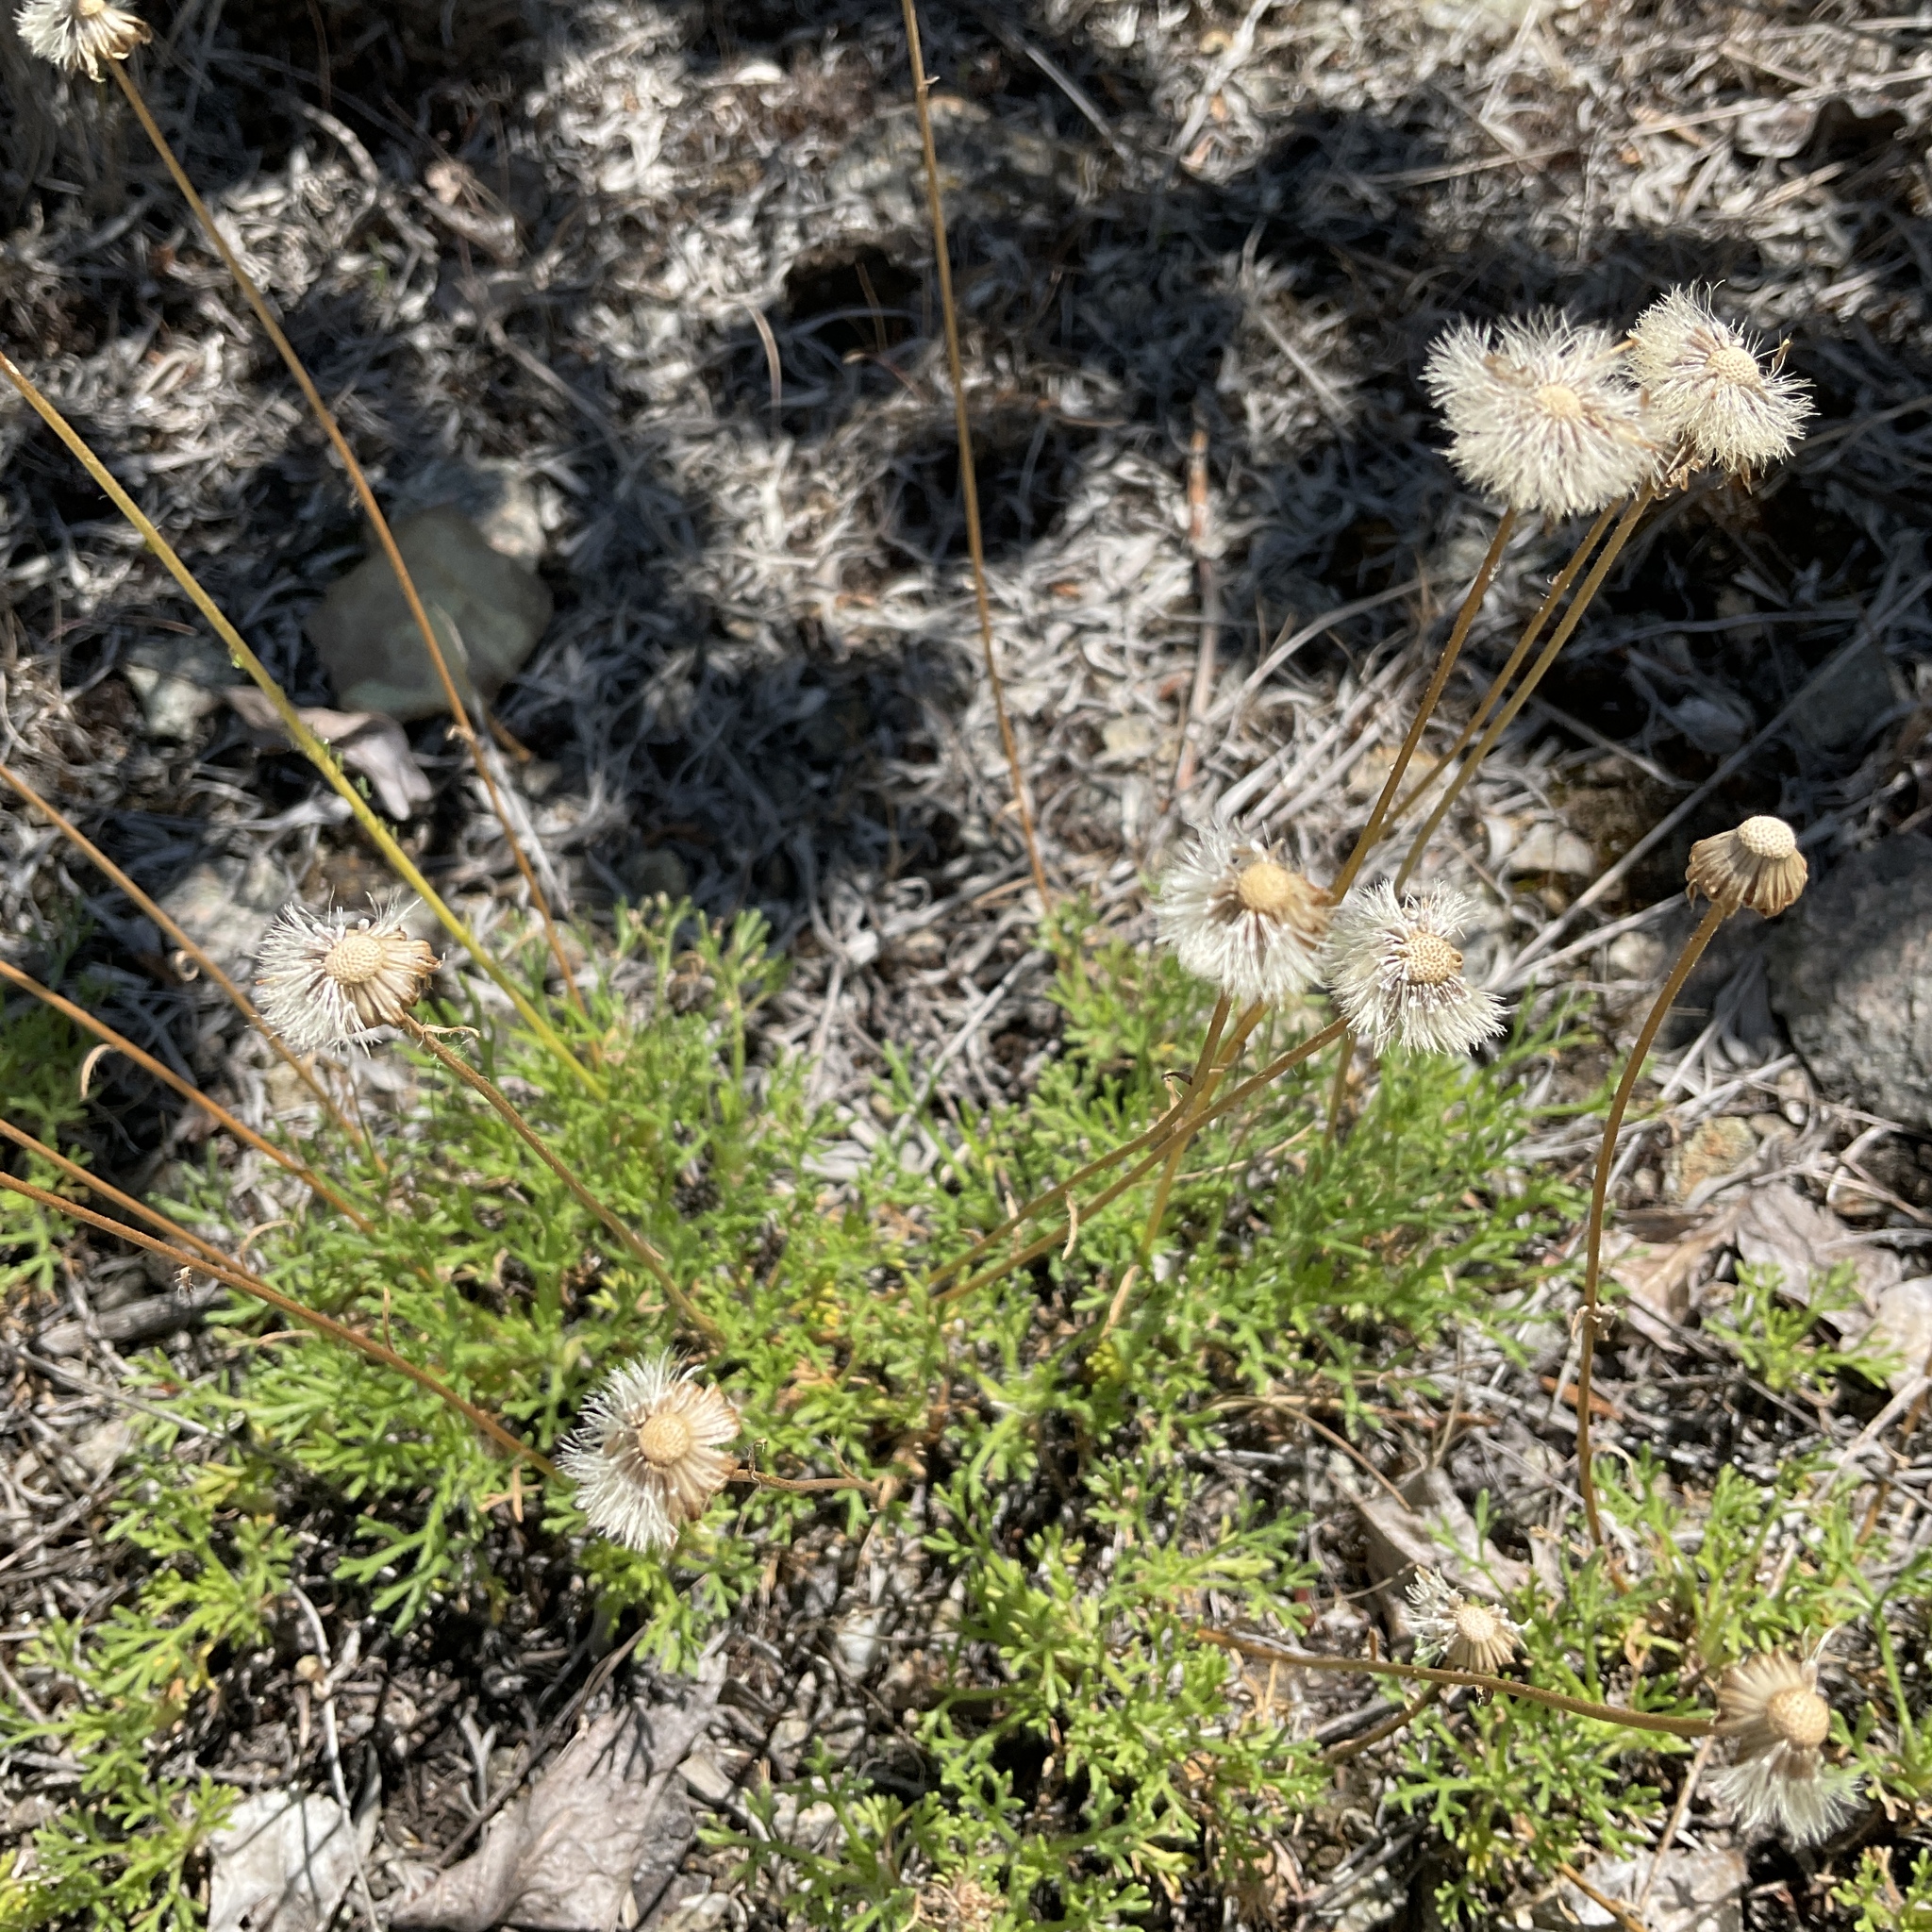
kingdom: Plantae
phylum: Tracheophyta
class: Magnoliopsida
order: Asterales
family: Asteraceae
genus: Erigeron
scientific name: Erigeron compositus
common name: Dwarf mountain fleabane
